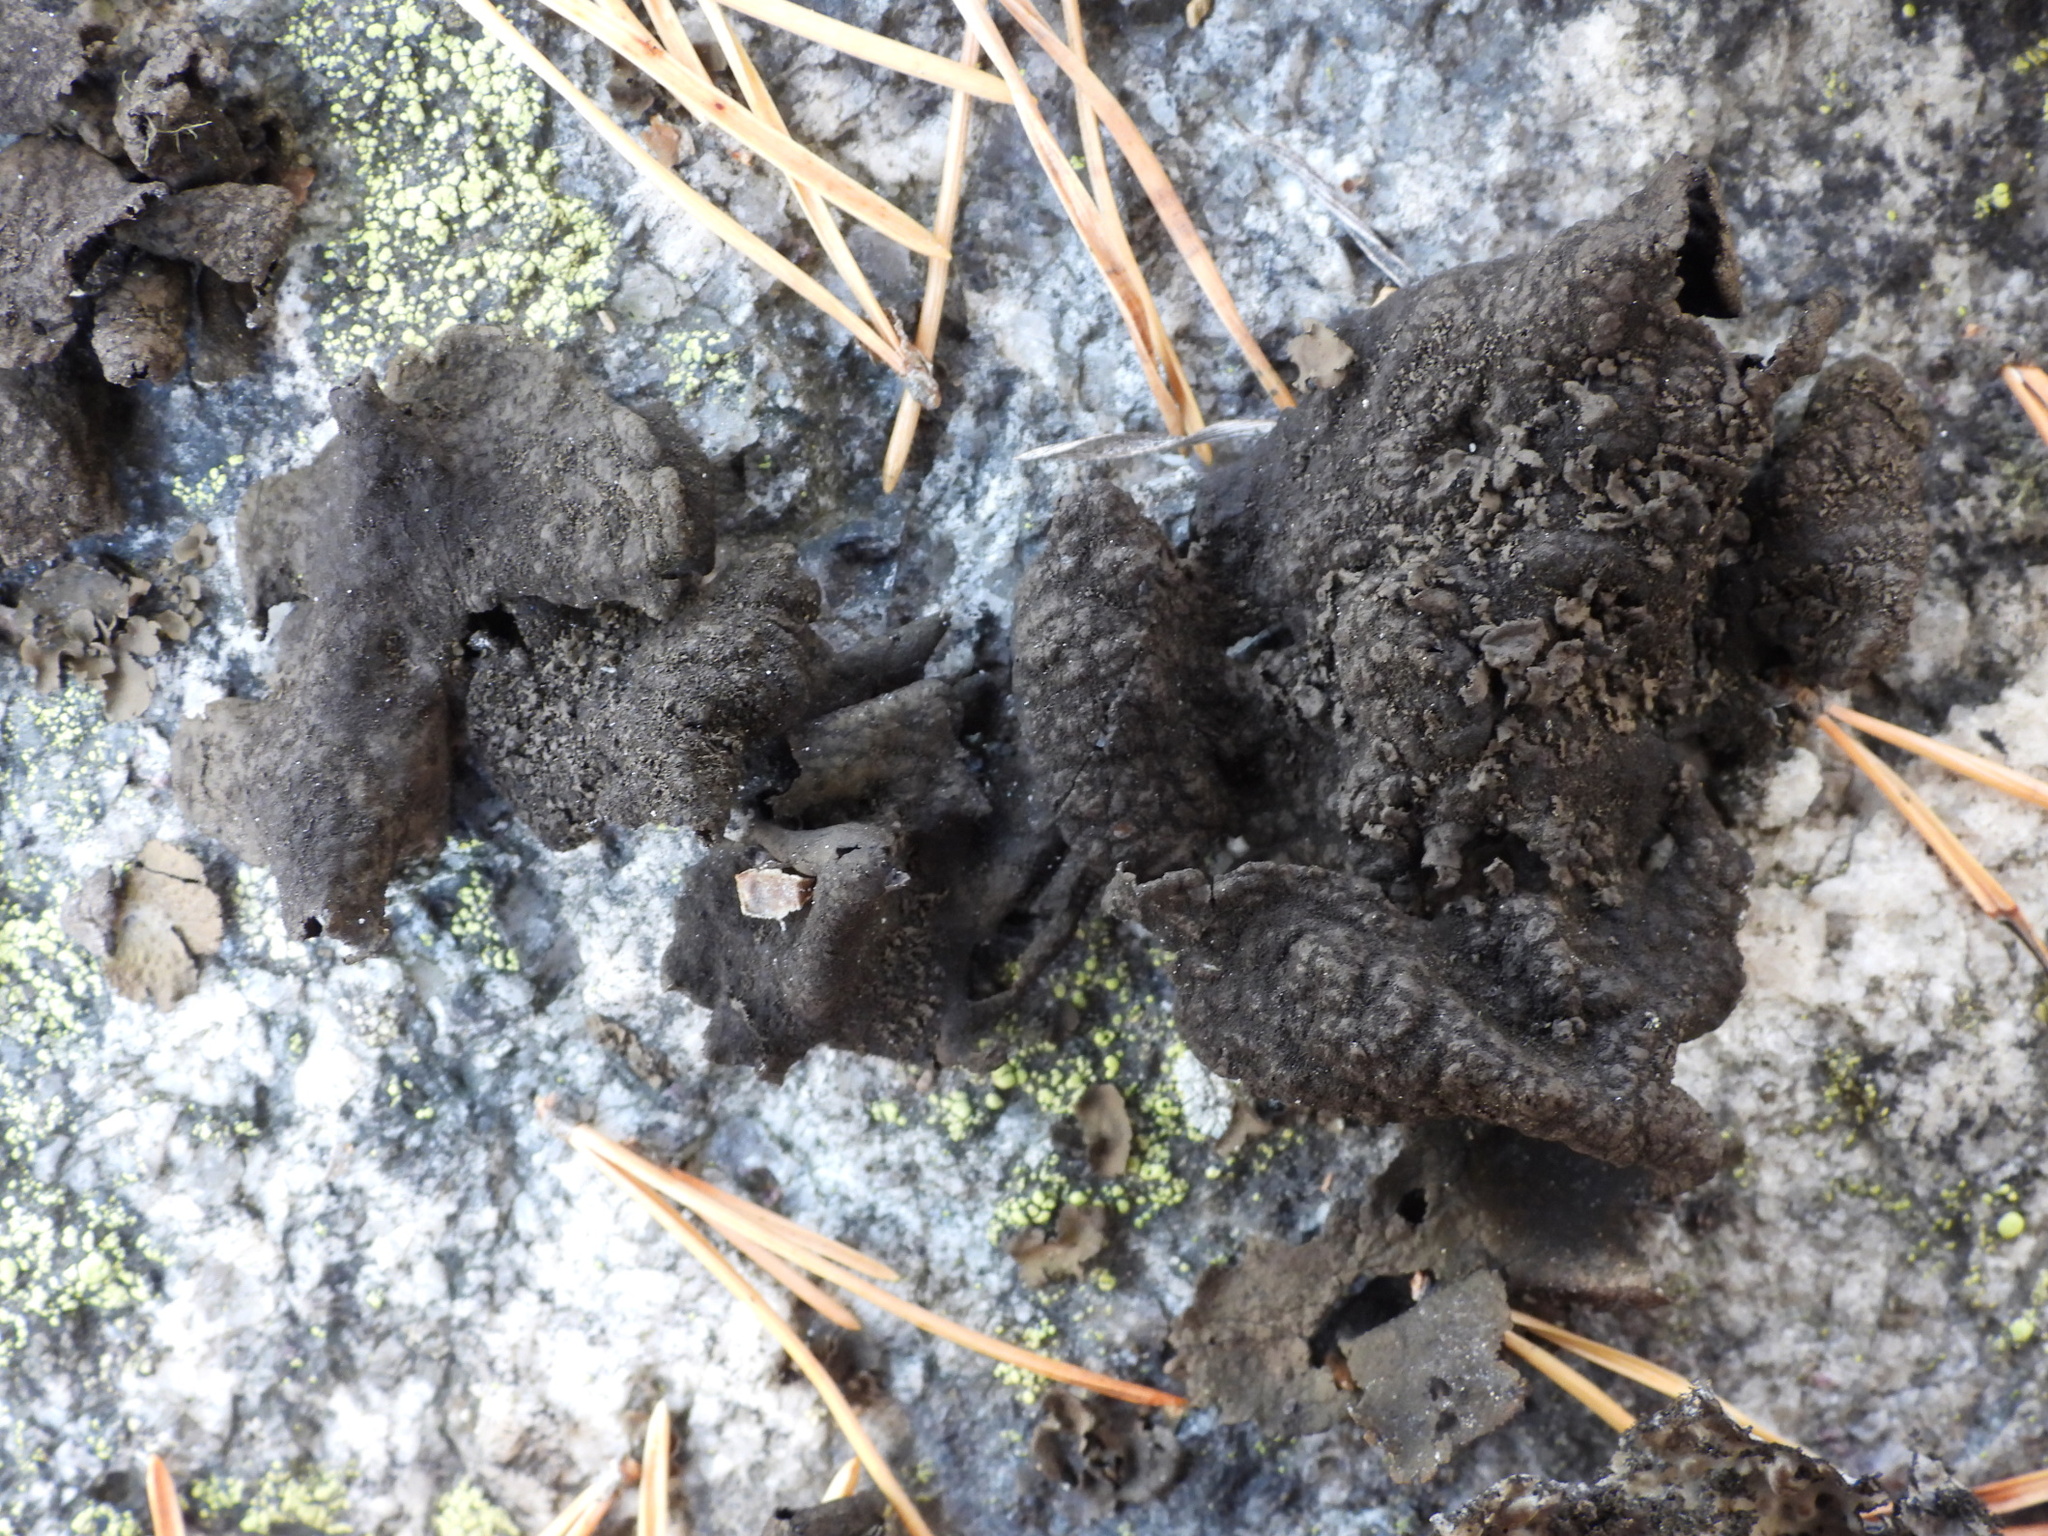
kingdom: Fungi
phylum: Ascomycota
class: Lecanoromycetes
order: Umbilicariales
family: Umbilicariaceae
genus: Umbilicaria
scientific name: Umbilicaria deusta
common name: Peppered rock tripe
